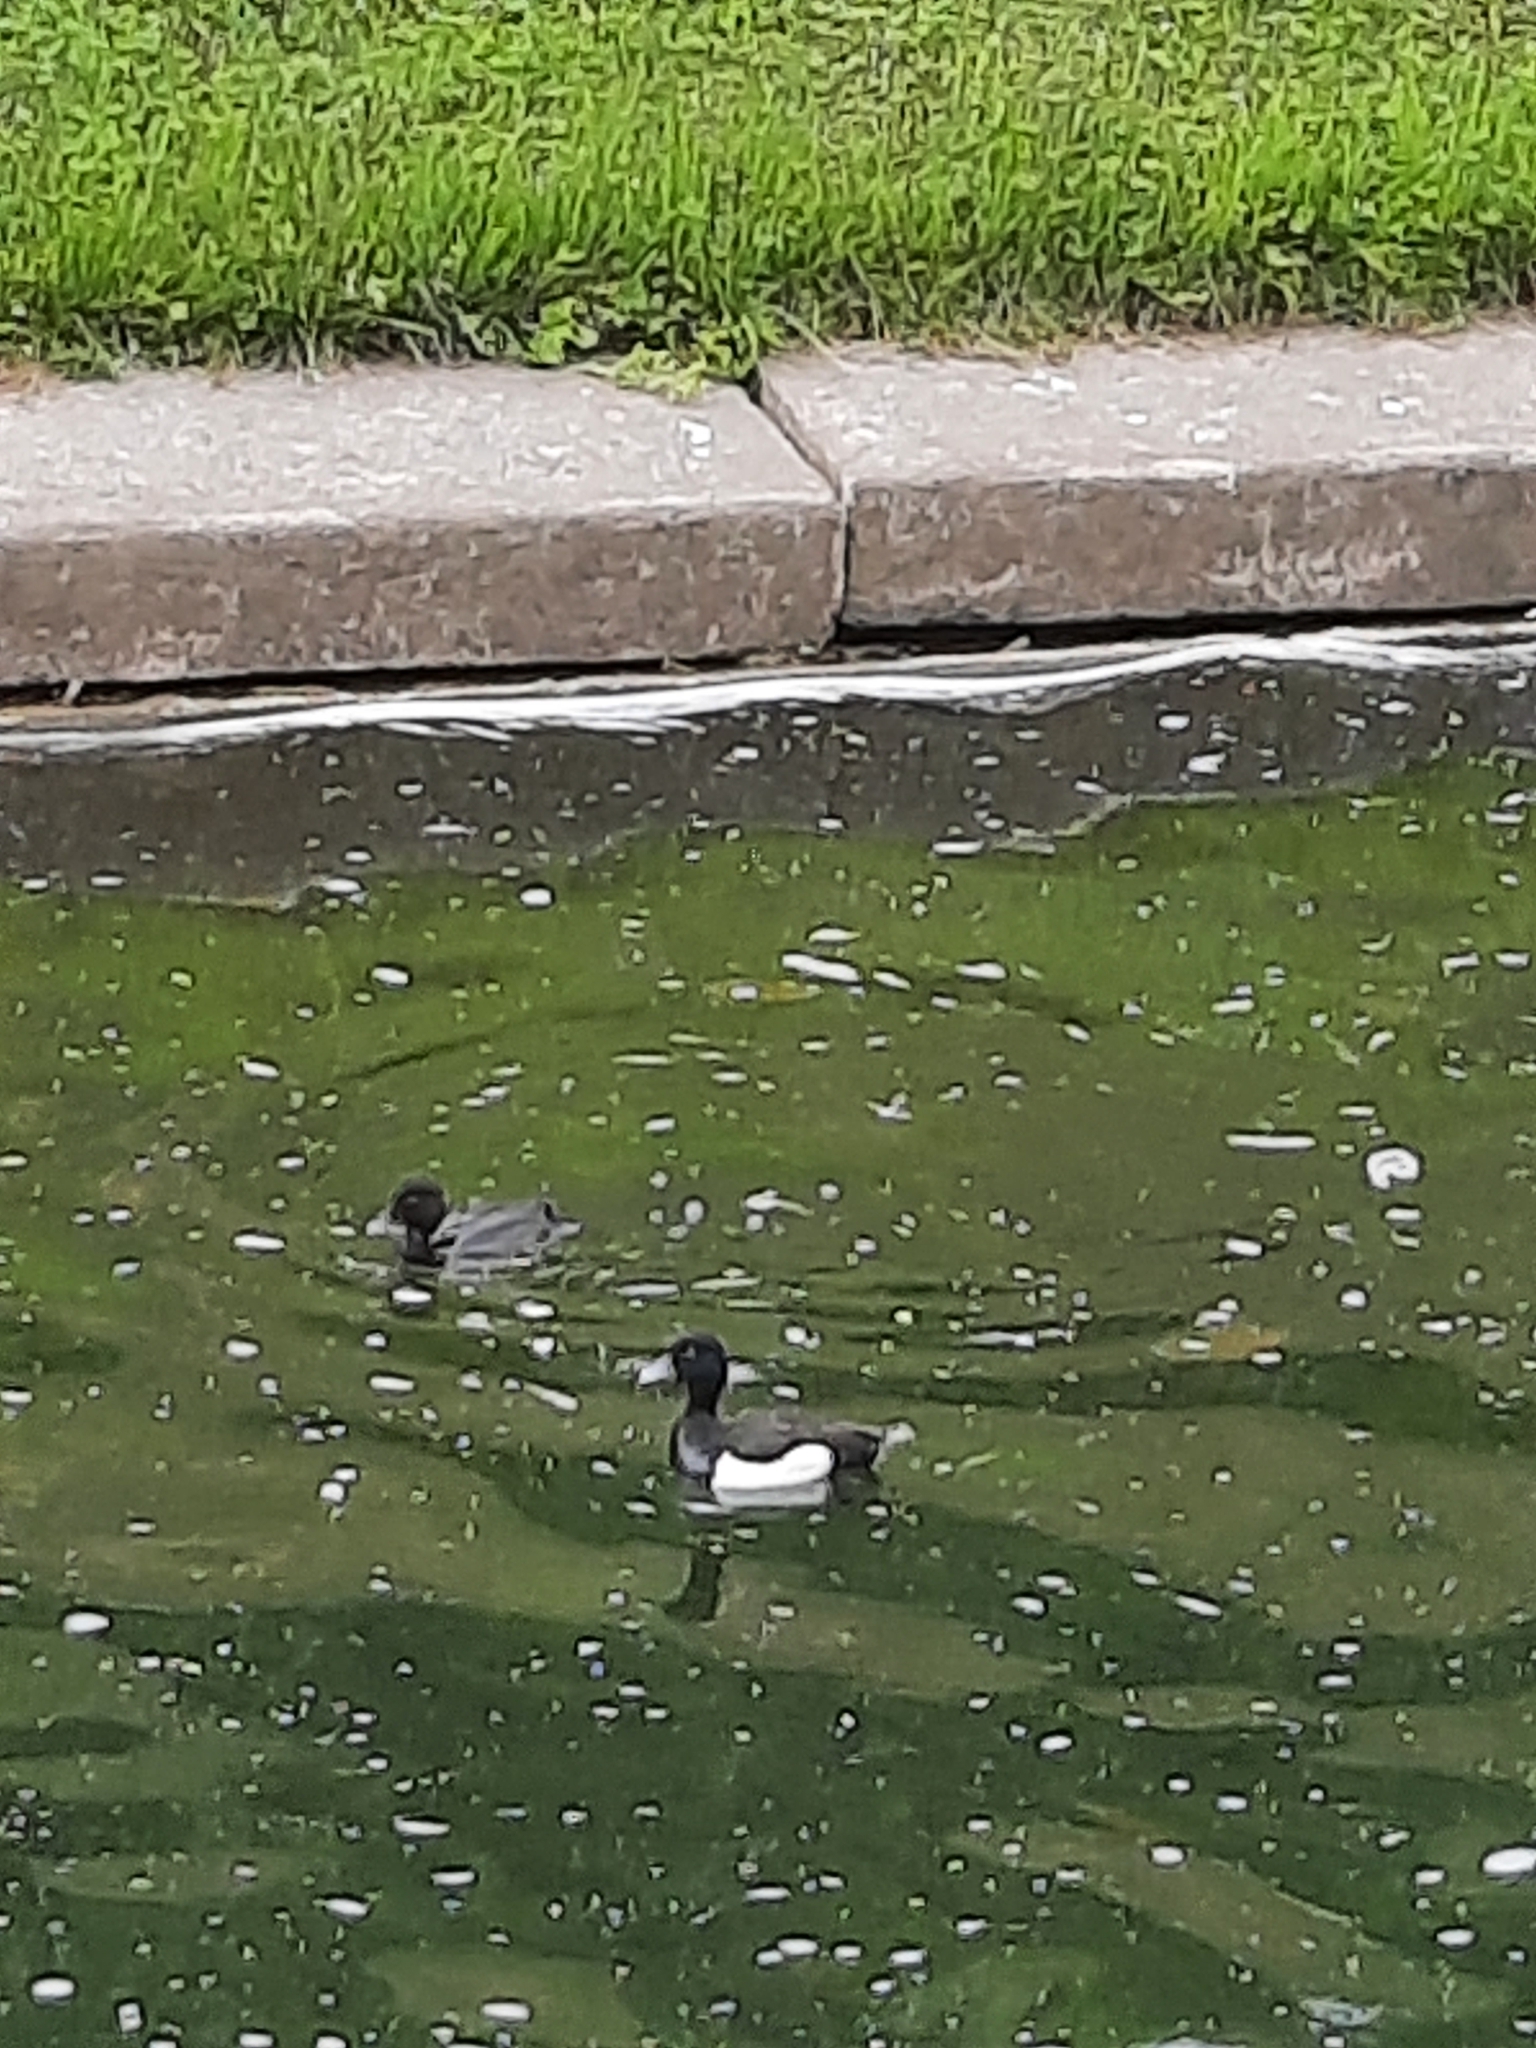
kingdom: Animalia
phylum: Chordata
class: Aves
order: Anseriformes
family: Anatidae
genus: Aythya
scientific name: Aythya fuligula
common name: Tufted duck
